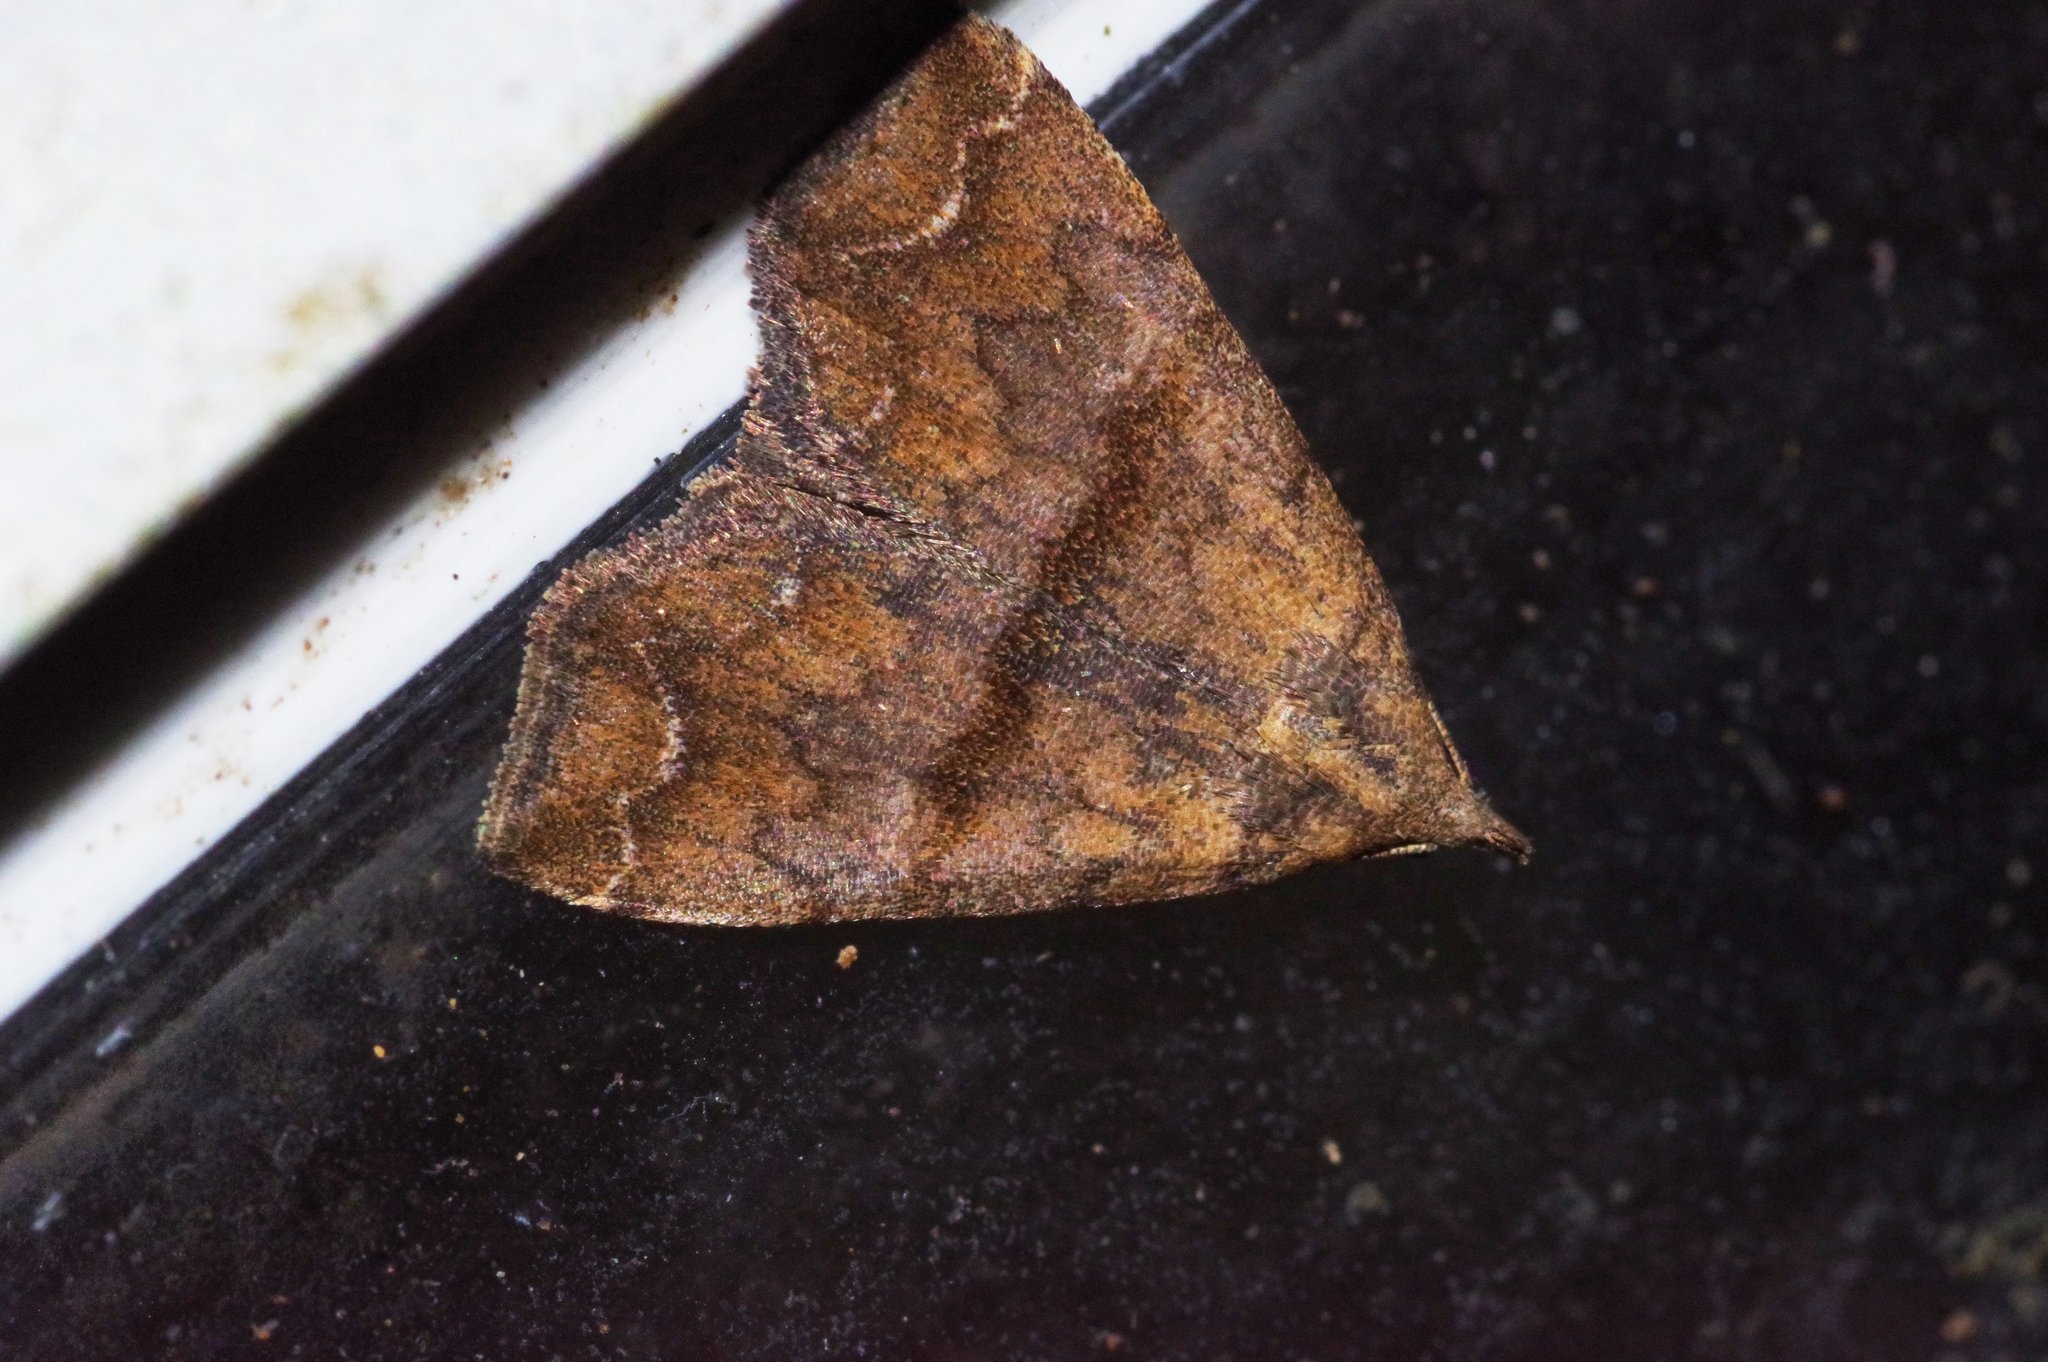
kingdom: Animalia
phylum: Arthropoda
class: Insecta
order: Lepidoptera
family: Erebidae
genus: Polypogon
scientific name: Polypogon Hipoepa fractalis
